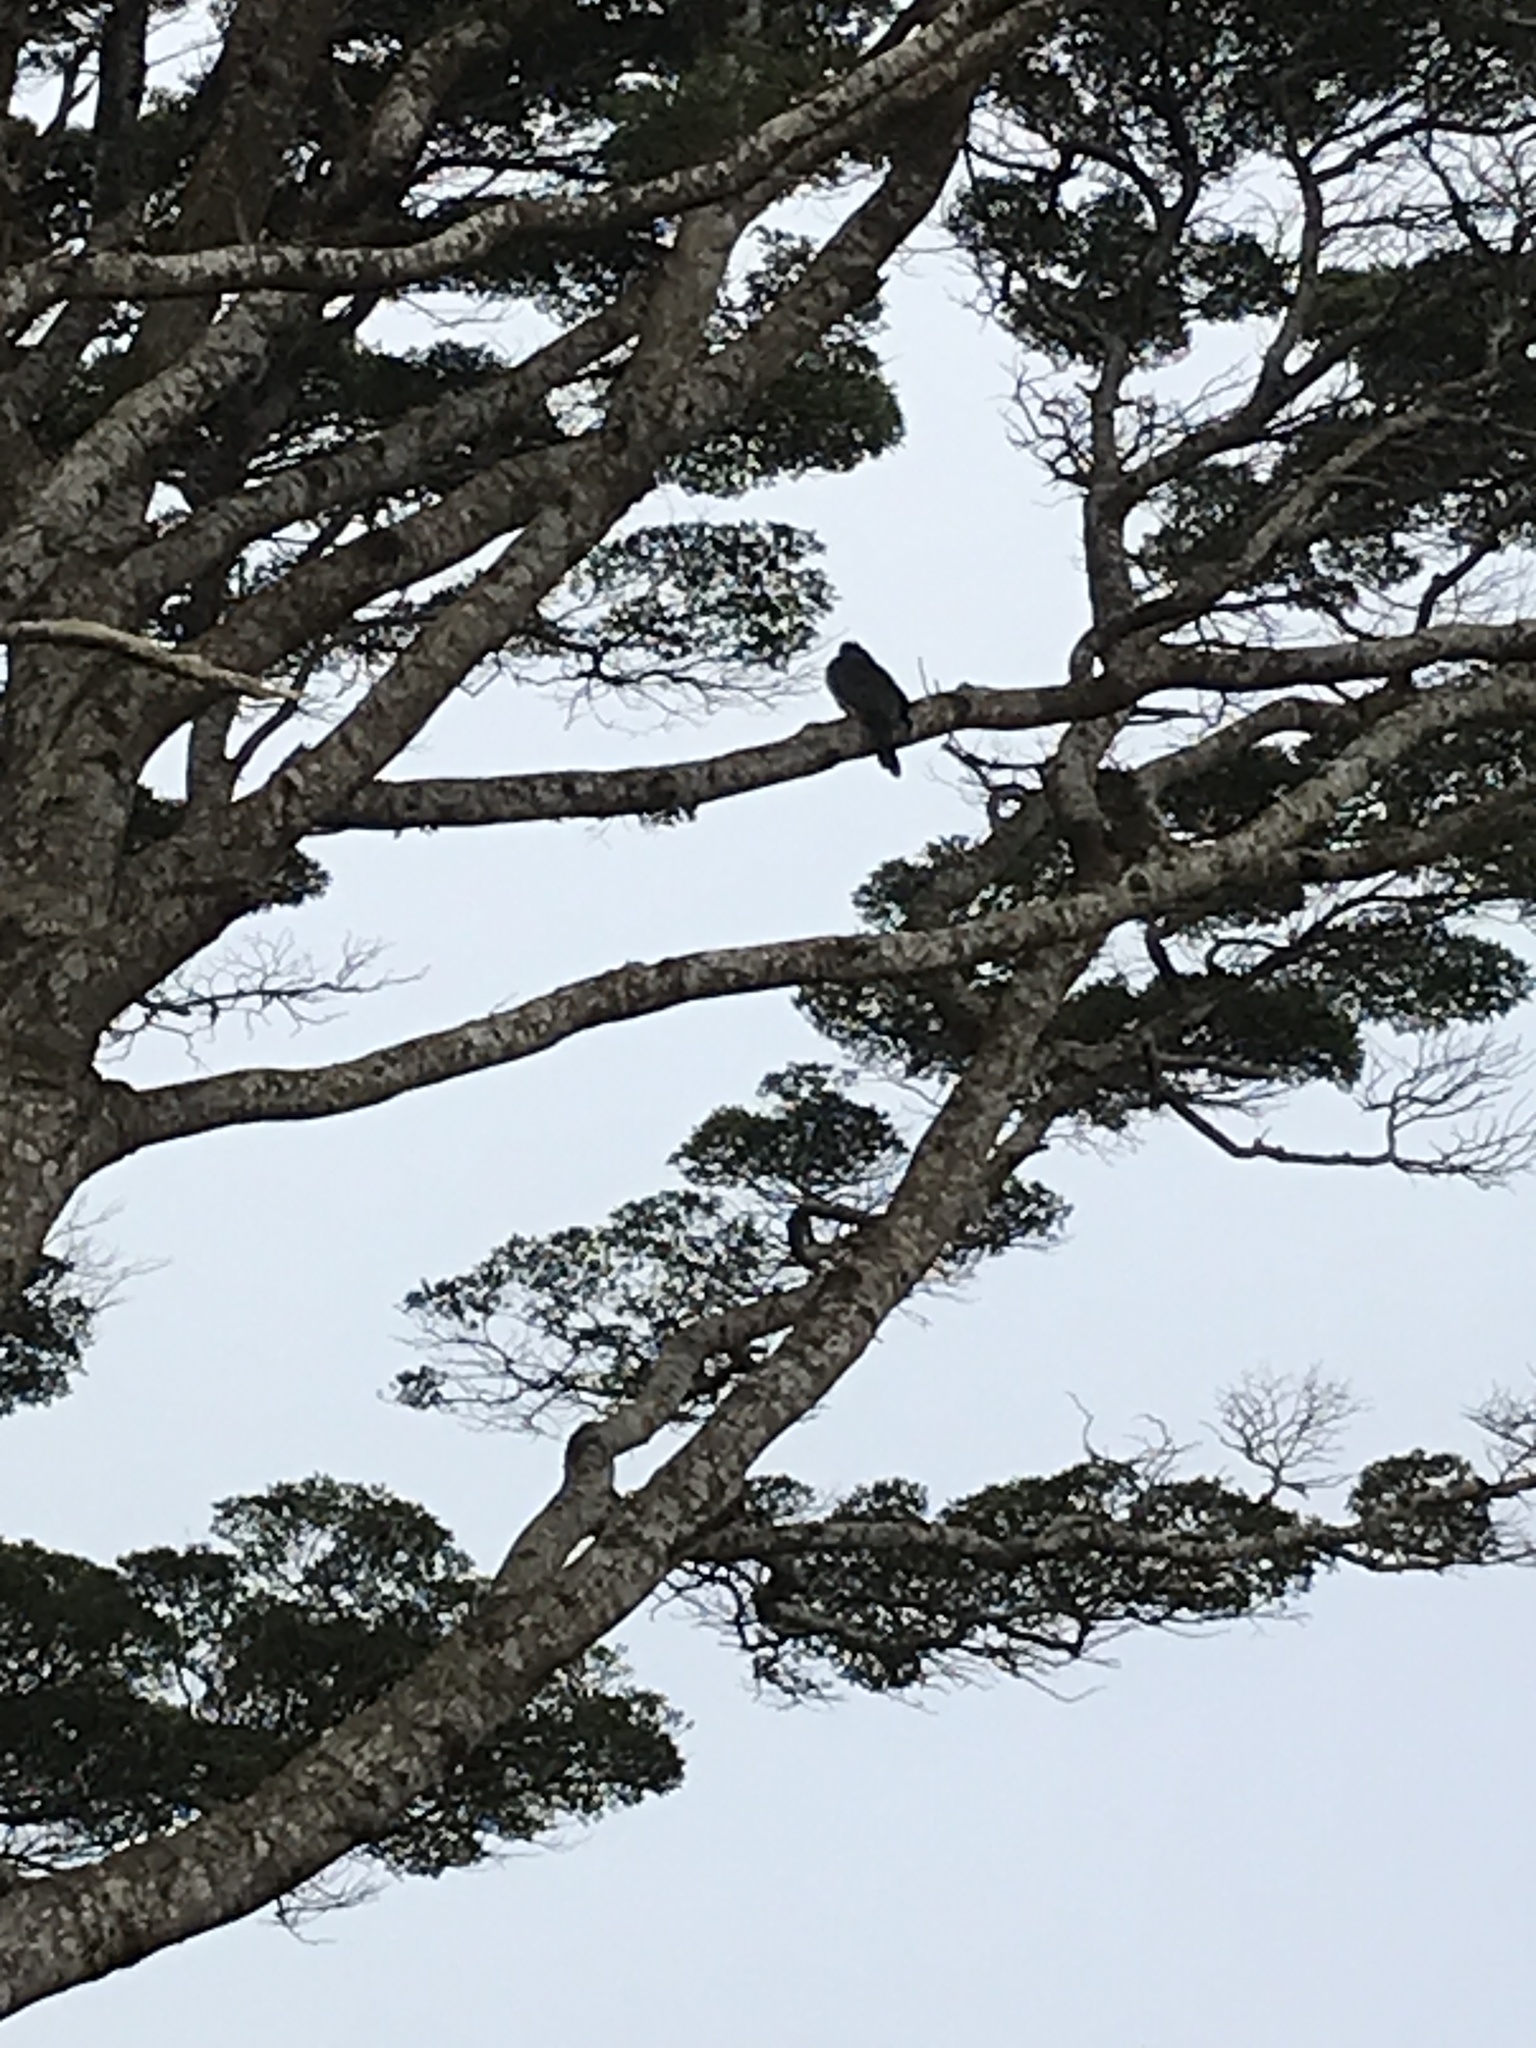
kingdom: Animalia
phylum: Chordata
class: Aves
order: Columbiformes
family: Columbidae
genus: Hemiphaga
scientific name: Hemiphaga novaeseelandiae
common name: New zealand pigeon
